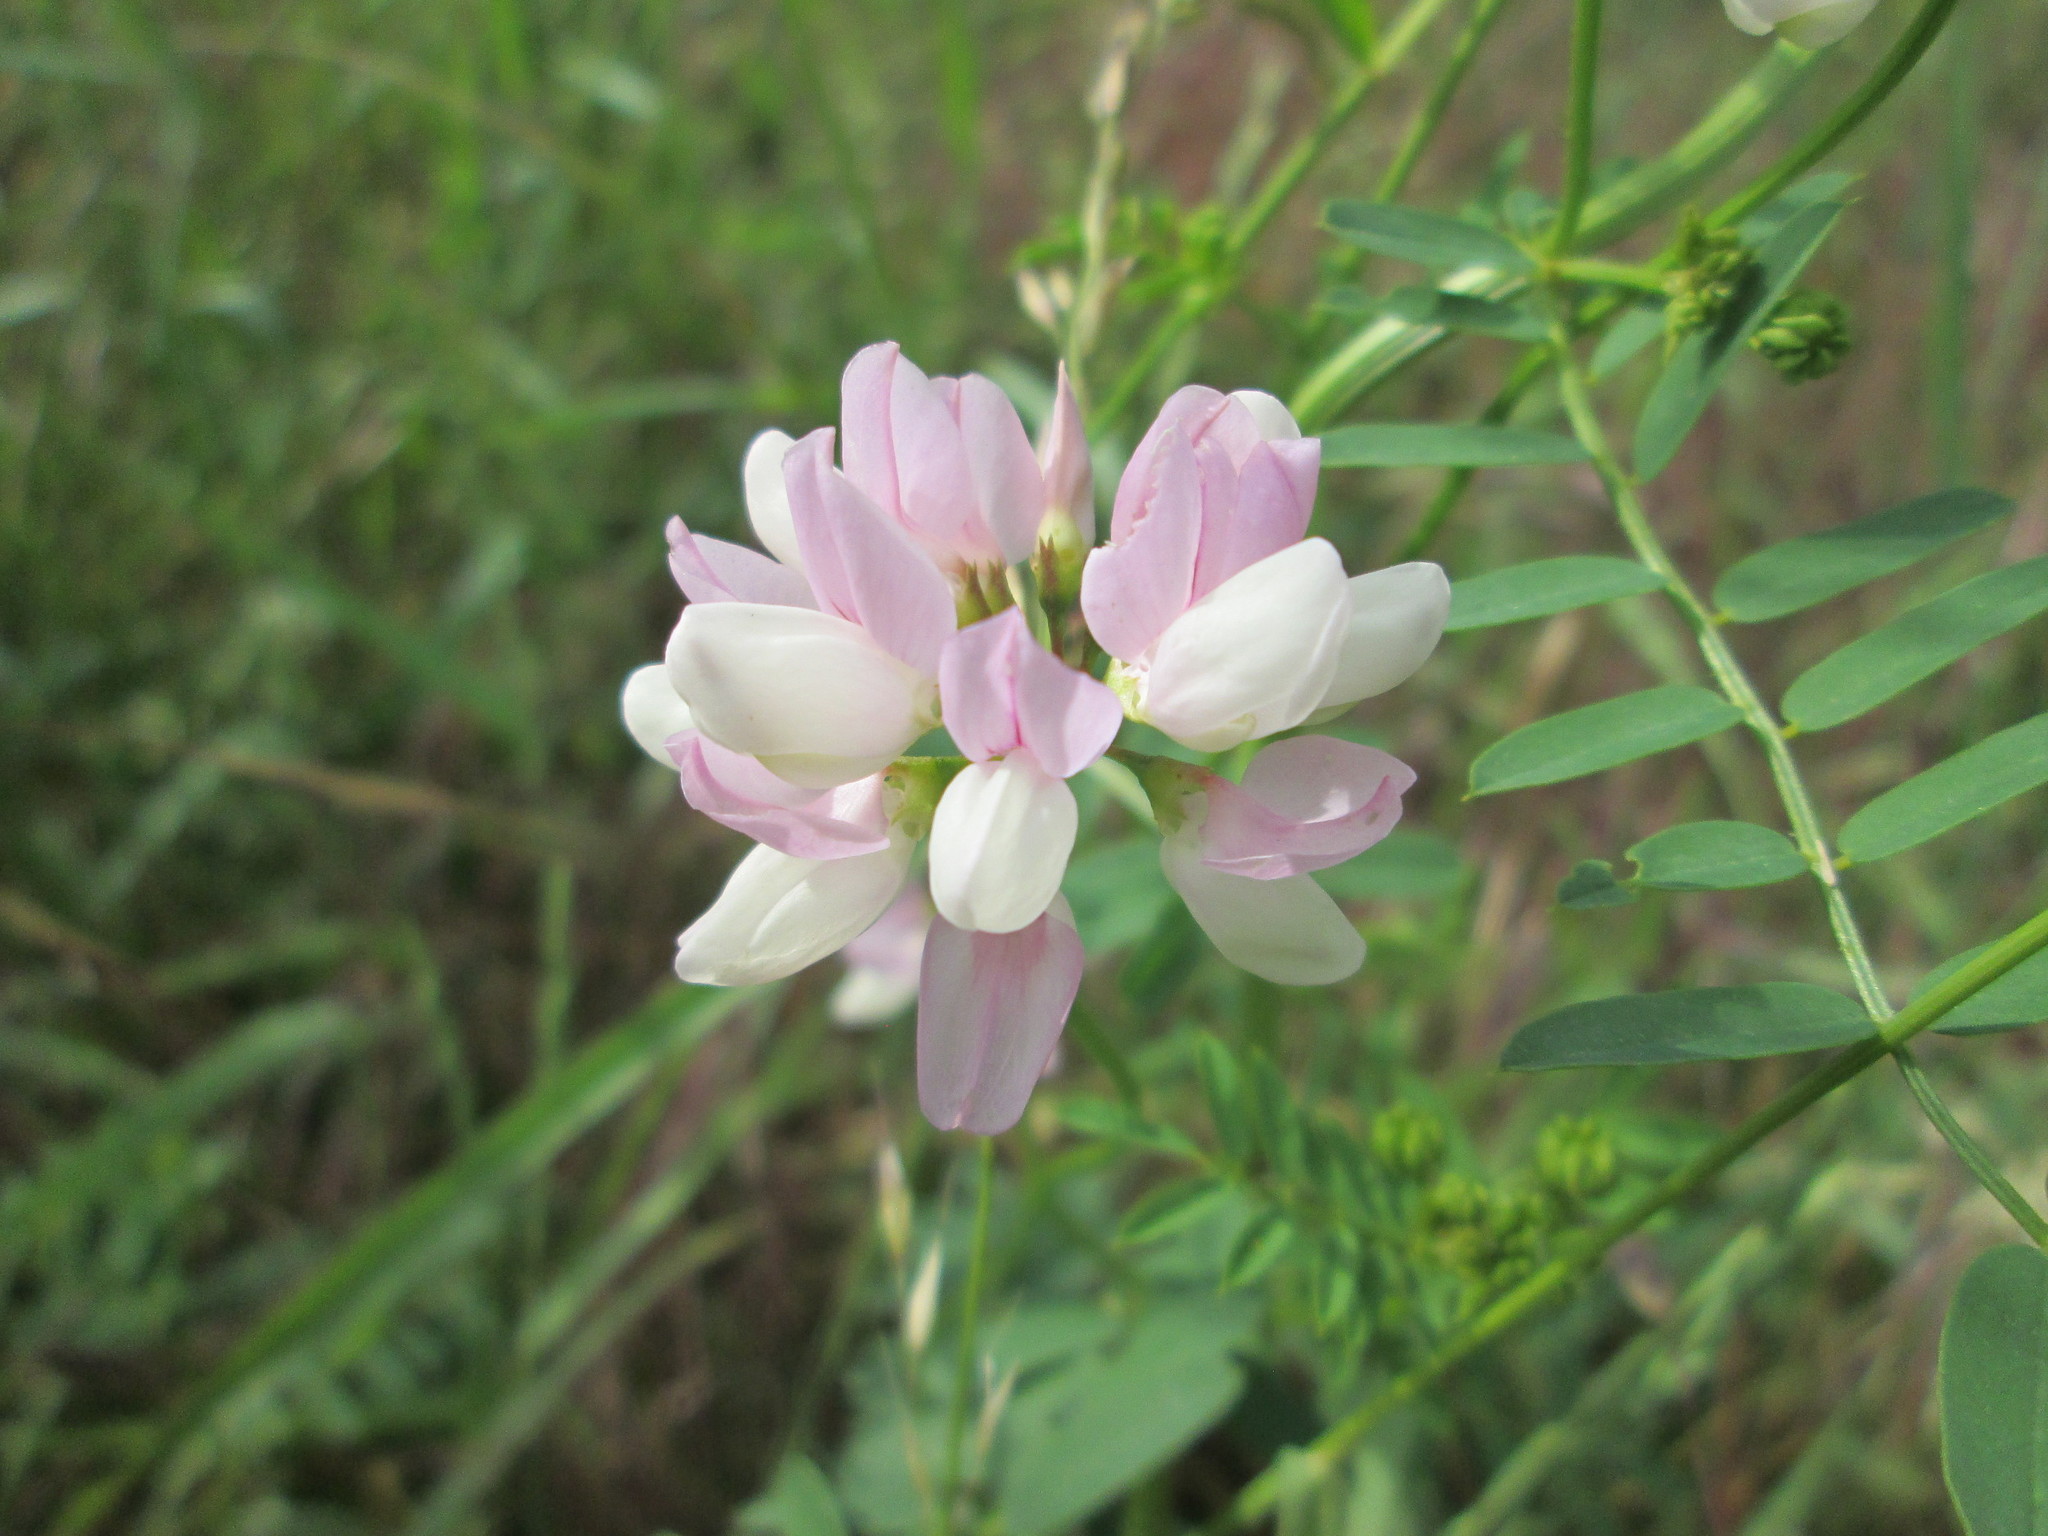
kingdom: Plantae
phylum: Tracheophyta
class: Magnoliopsida
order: Fabales
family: Fabaceae
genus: Coronilla
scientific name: Coronilla varia
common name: Crownvetch
